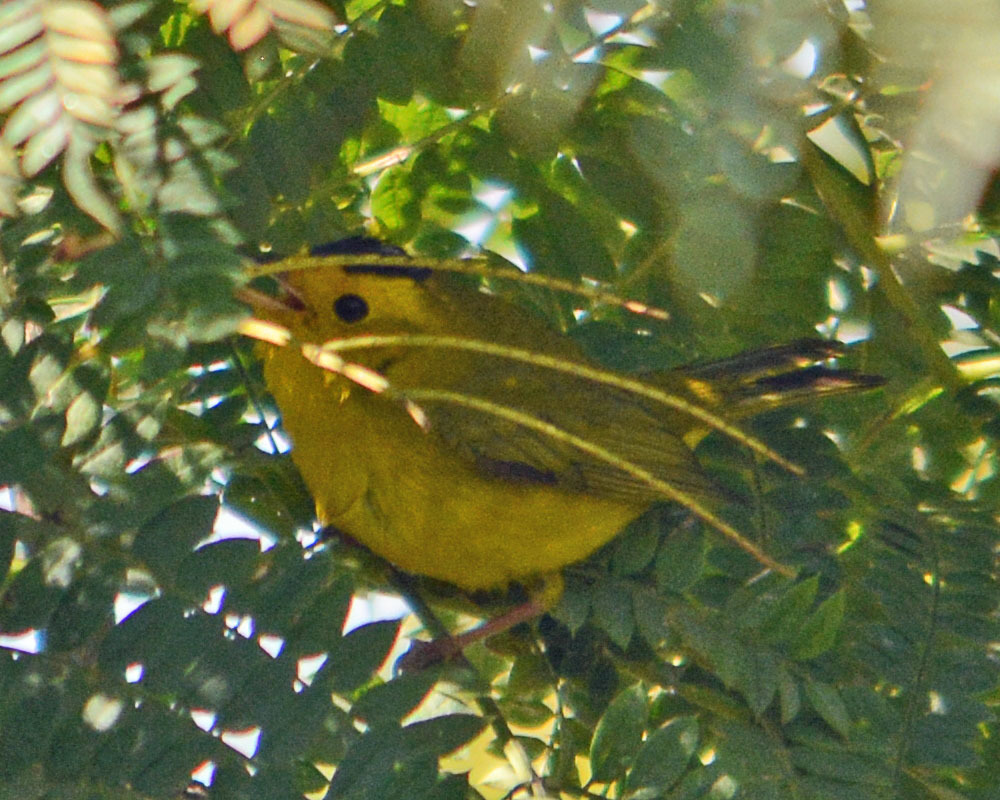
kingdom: Animalia
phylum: Chordata
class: Aves
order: Passeriformes
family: Parulidae
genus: Cardellina
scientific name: Cardellina pusilla
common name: Wilson's warbler
